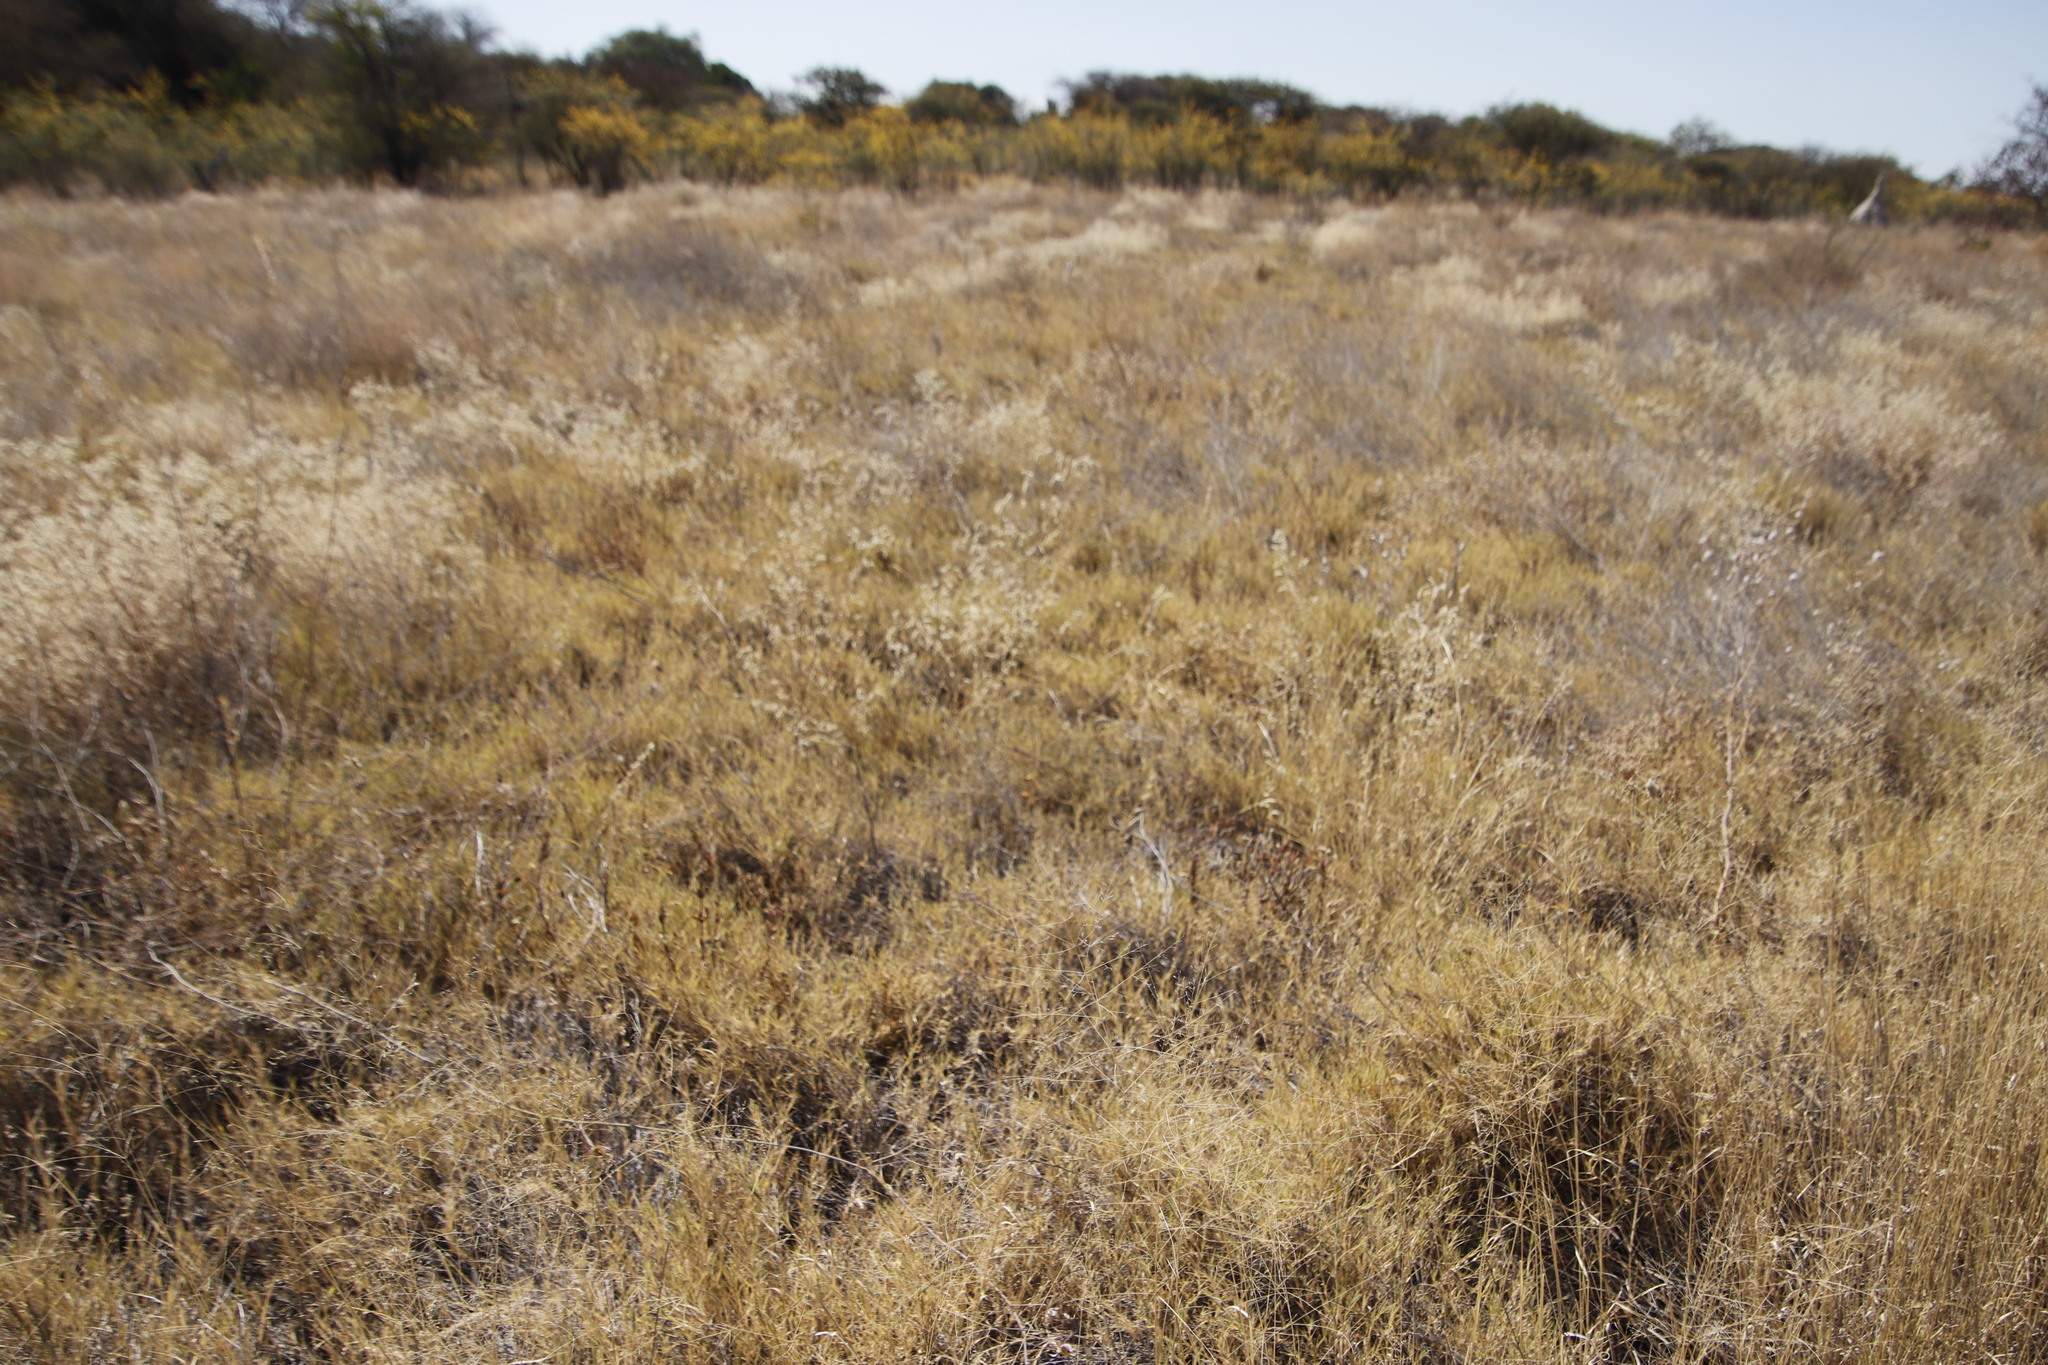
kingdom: Plantae
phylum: Tracheophyta
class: Magnoliopsida
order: Caryophyllales
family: Amaranthaceae
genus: Ouret
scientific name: Ouret leucura
